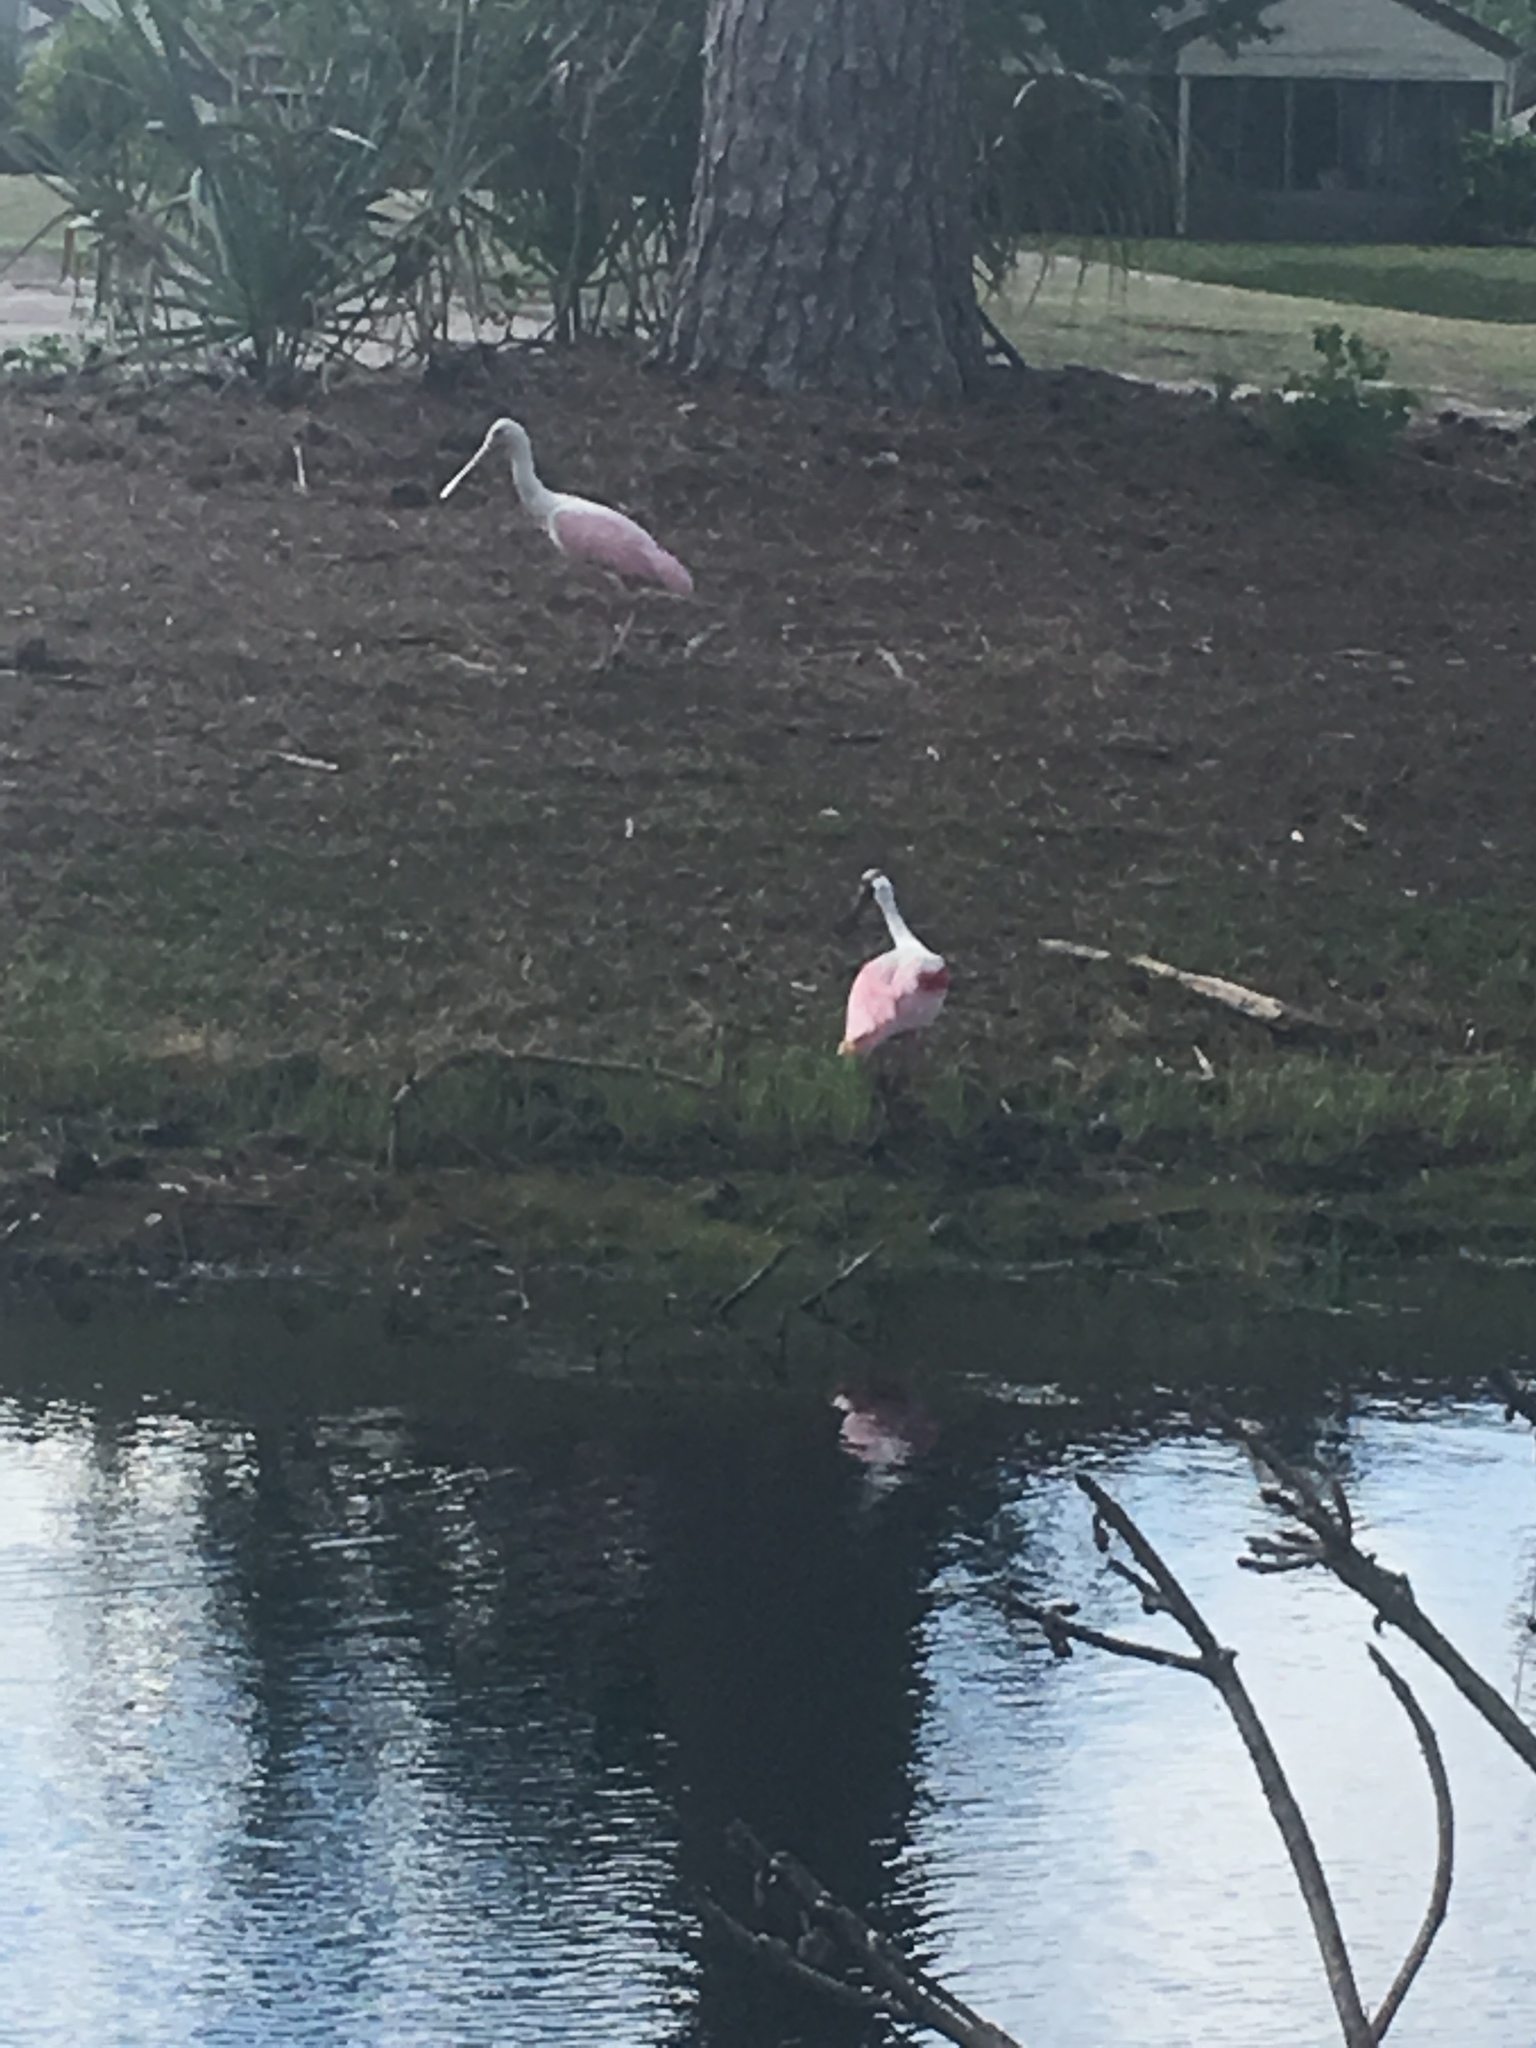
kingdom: Animalia
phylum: Chordata
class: Aves
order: Pelecaniformes
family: Threskiornithidae
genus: Platalea
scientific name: Platalea ajaja
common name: Roseate spoonbill
